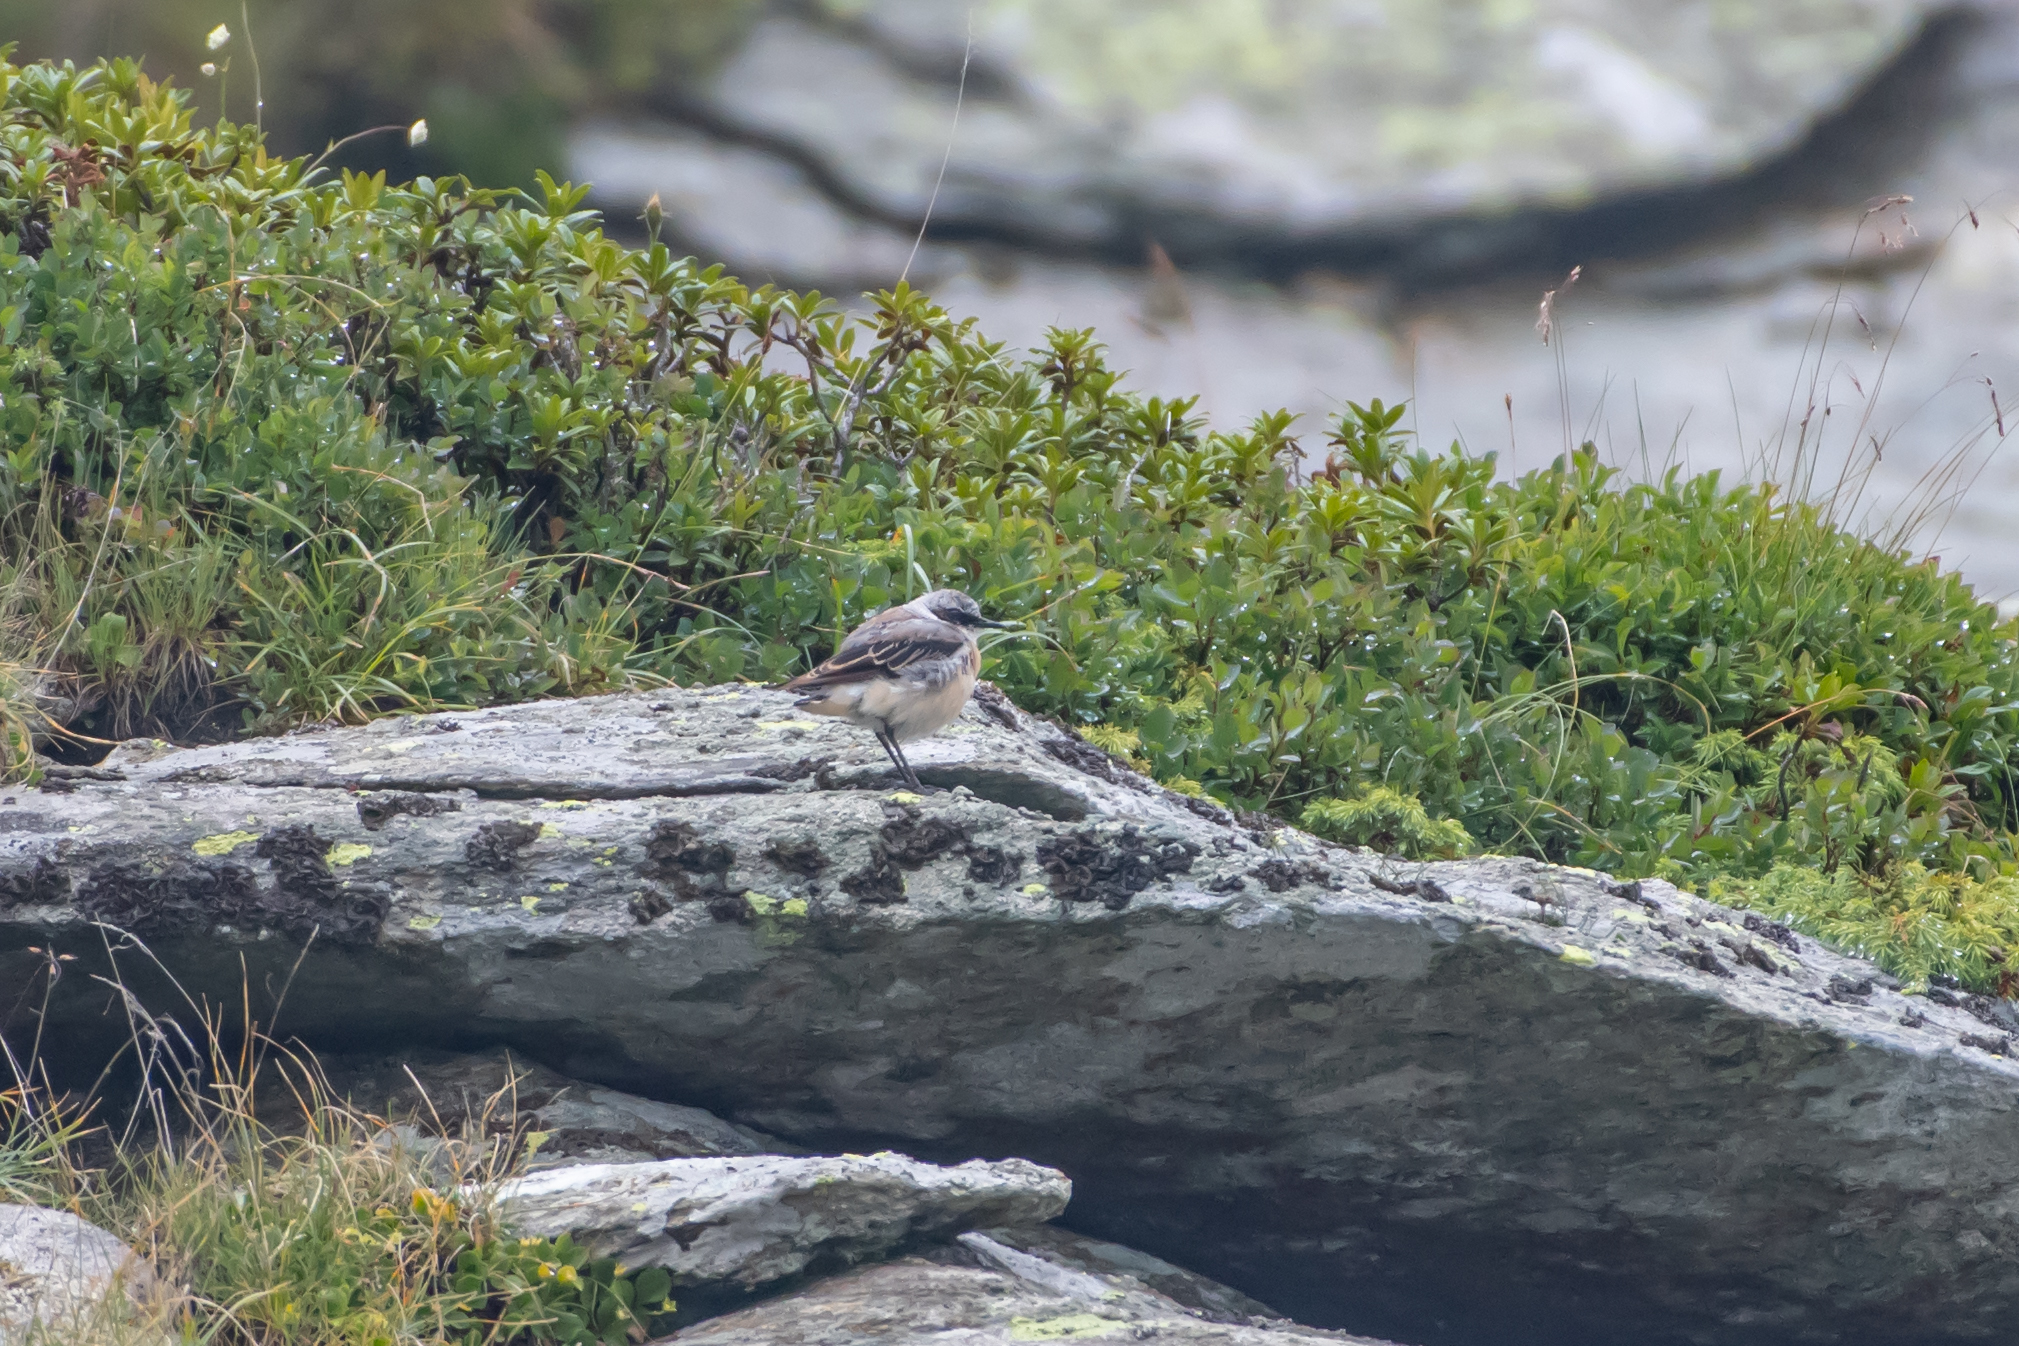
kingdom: Animalia
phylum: Chordata
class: Aves
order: Passeriformes
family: Muscicapidae
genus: Oenanthe
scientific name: Oenanthe oenanthe
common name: Northern wheatear
